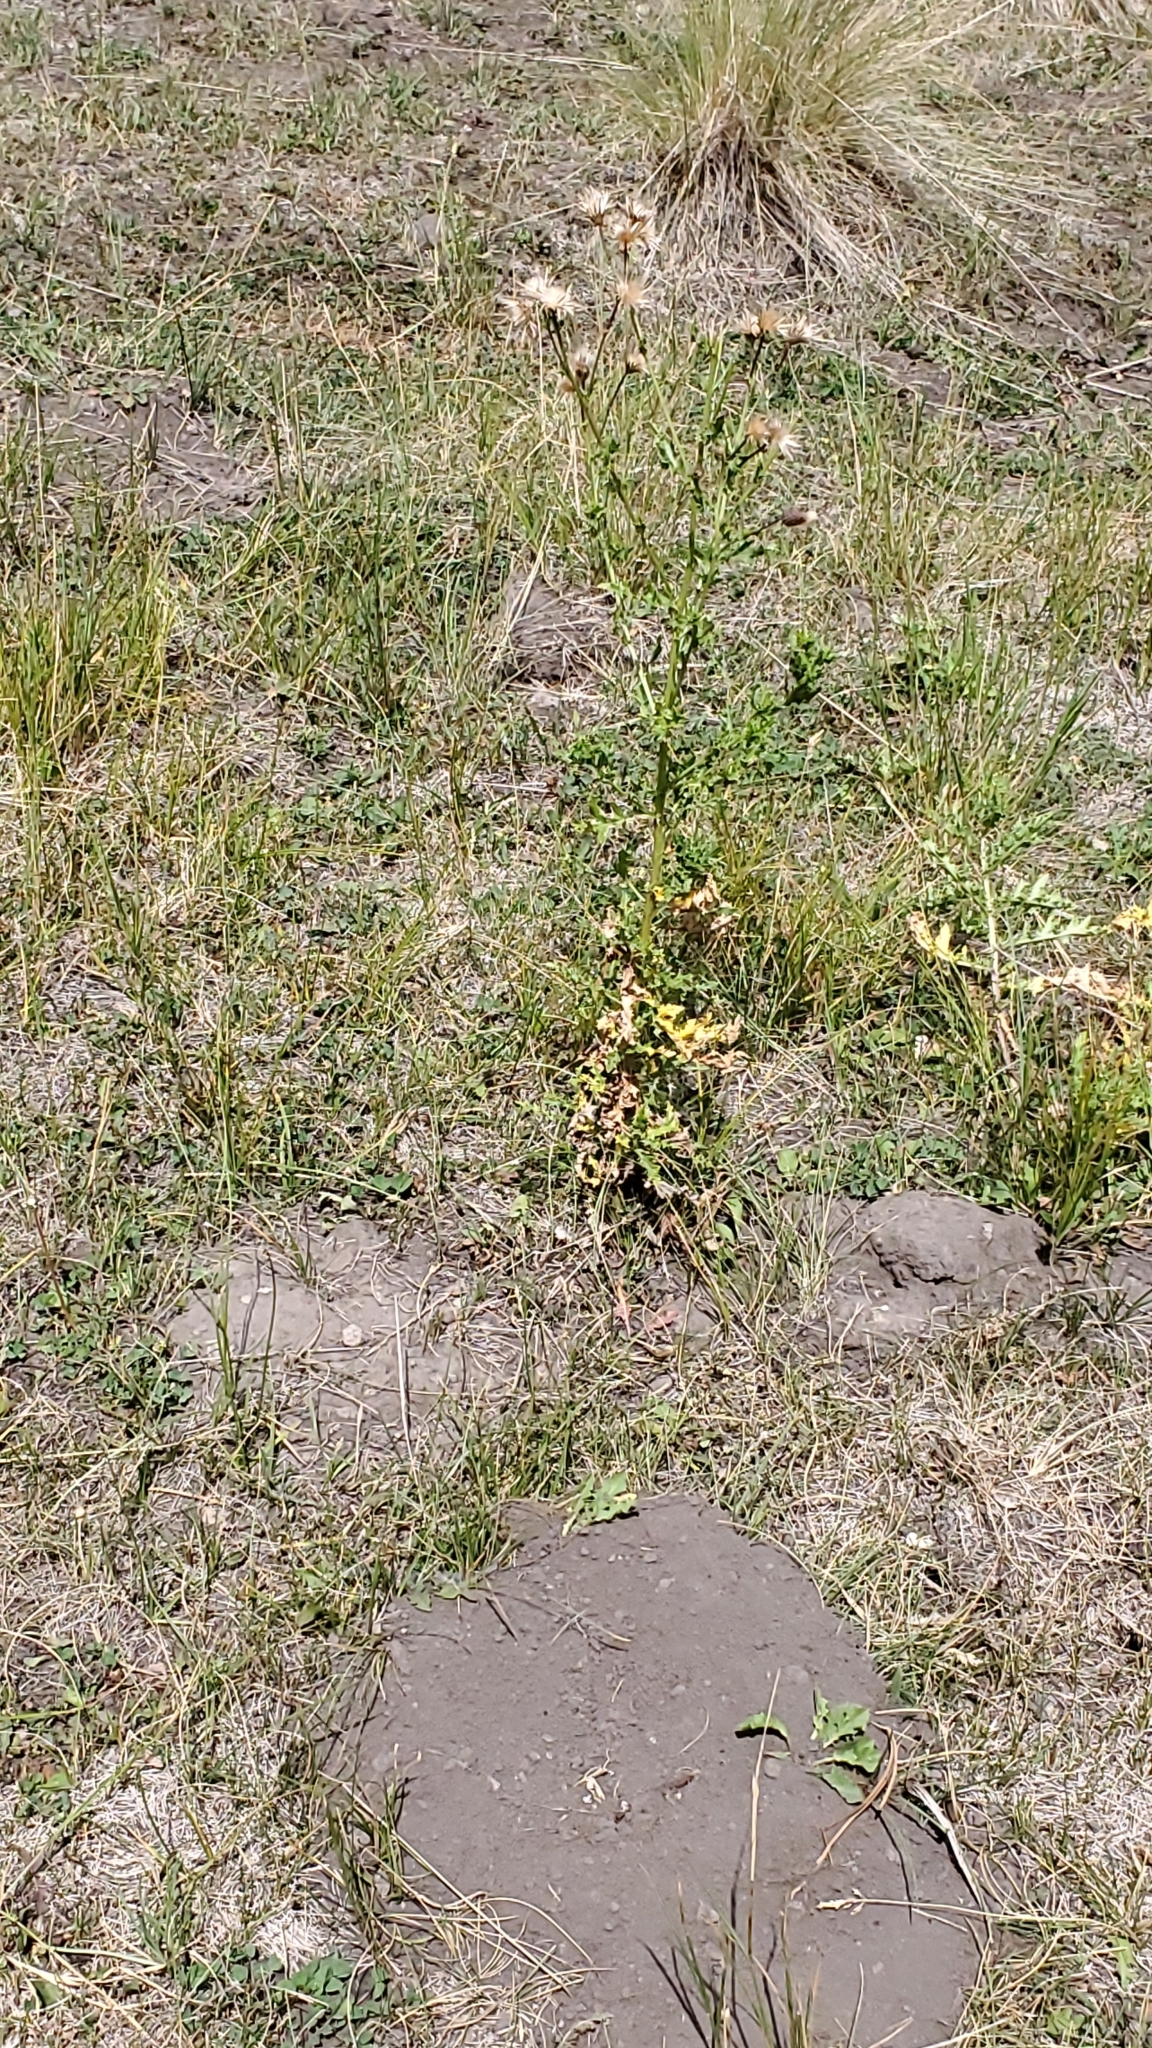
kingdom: Plantae
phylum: Tracheophyta
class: Magnoliopsida
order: Asterales
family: Asteraceae
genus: Cirsium
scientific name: Cirsium arvense
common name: Creeping thistle
